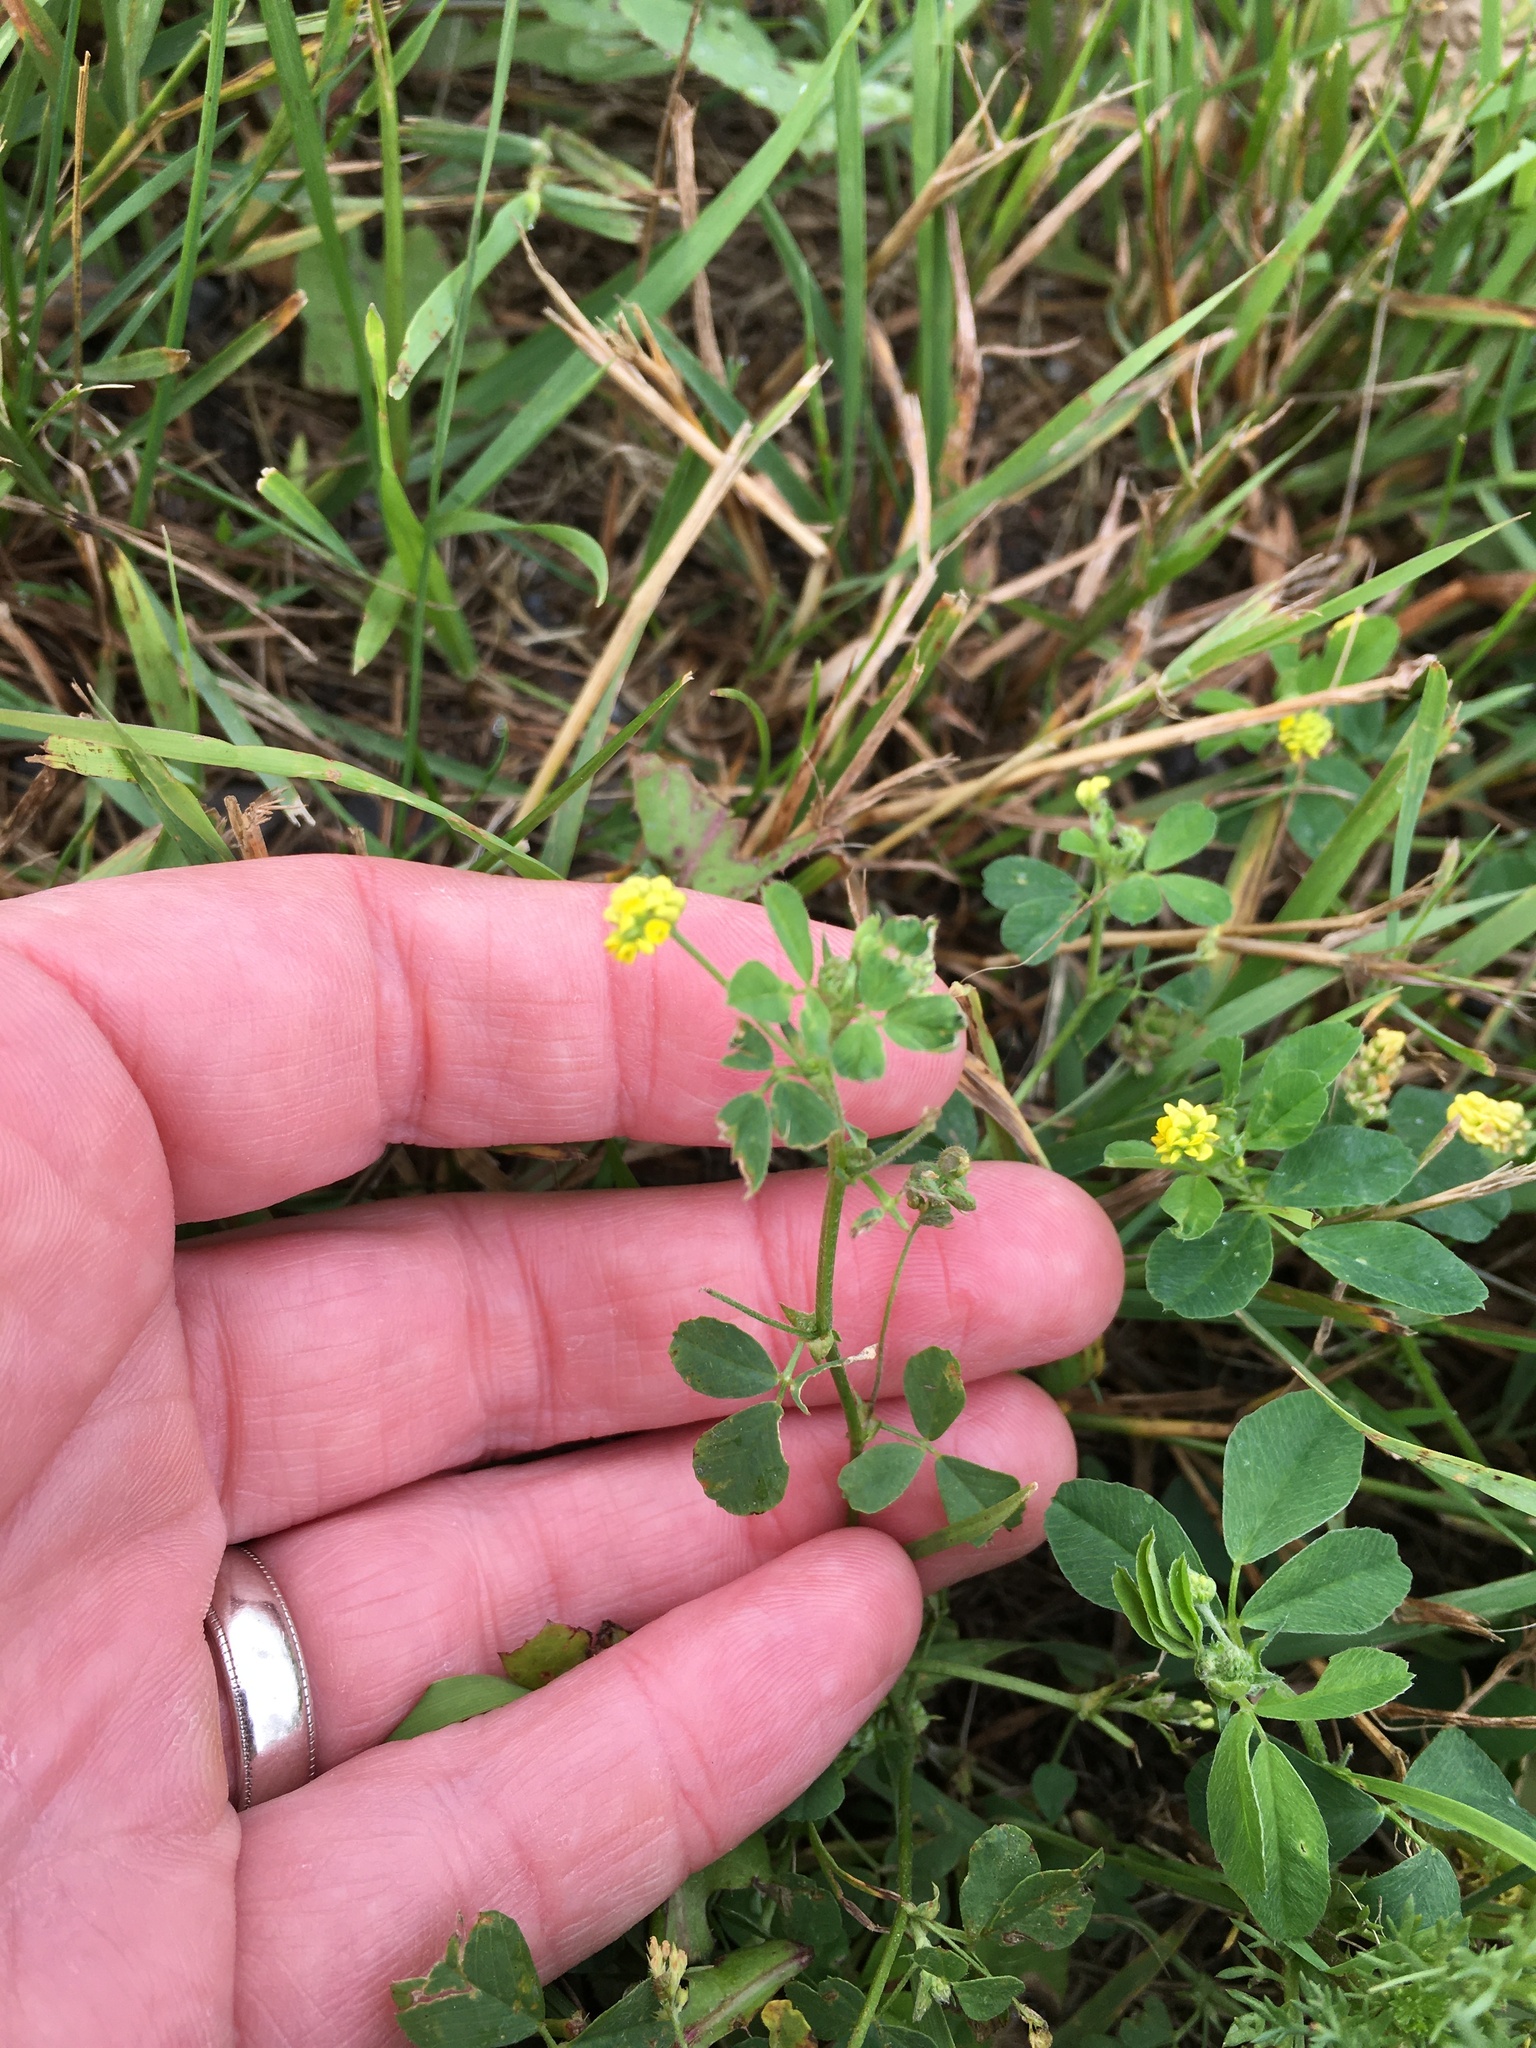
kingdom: Plantae
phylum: Tracheophyta
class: Magnoliopsida
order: Fabales
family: Fabaceae
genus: Medicago
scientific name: Medicago lupulina
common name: Black medick
